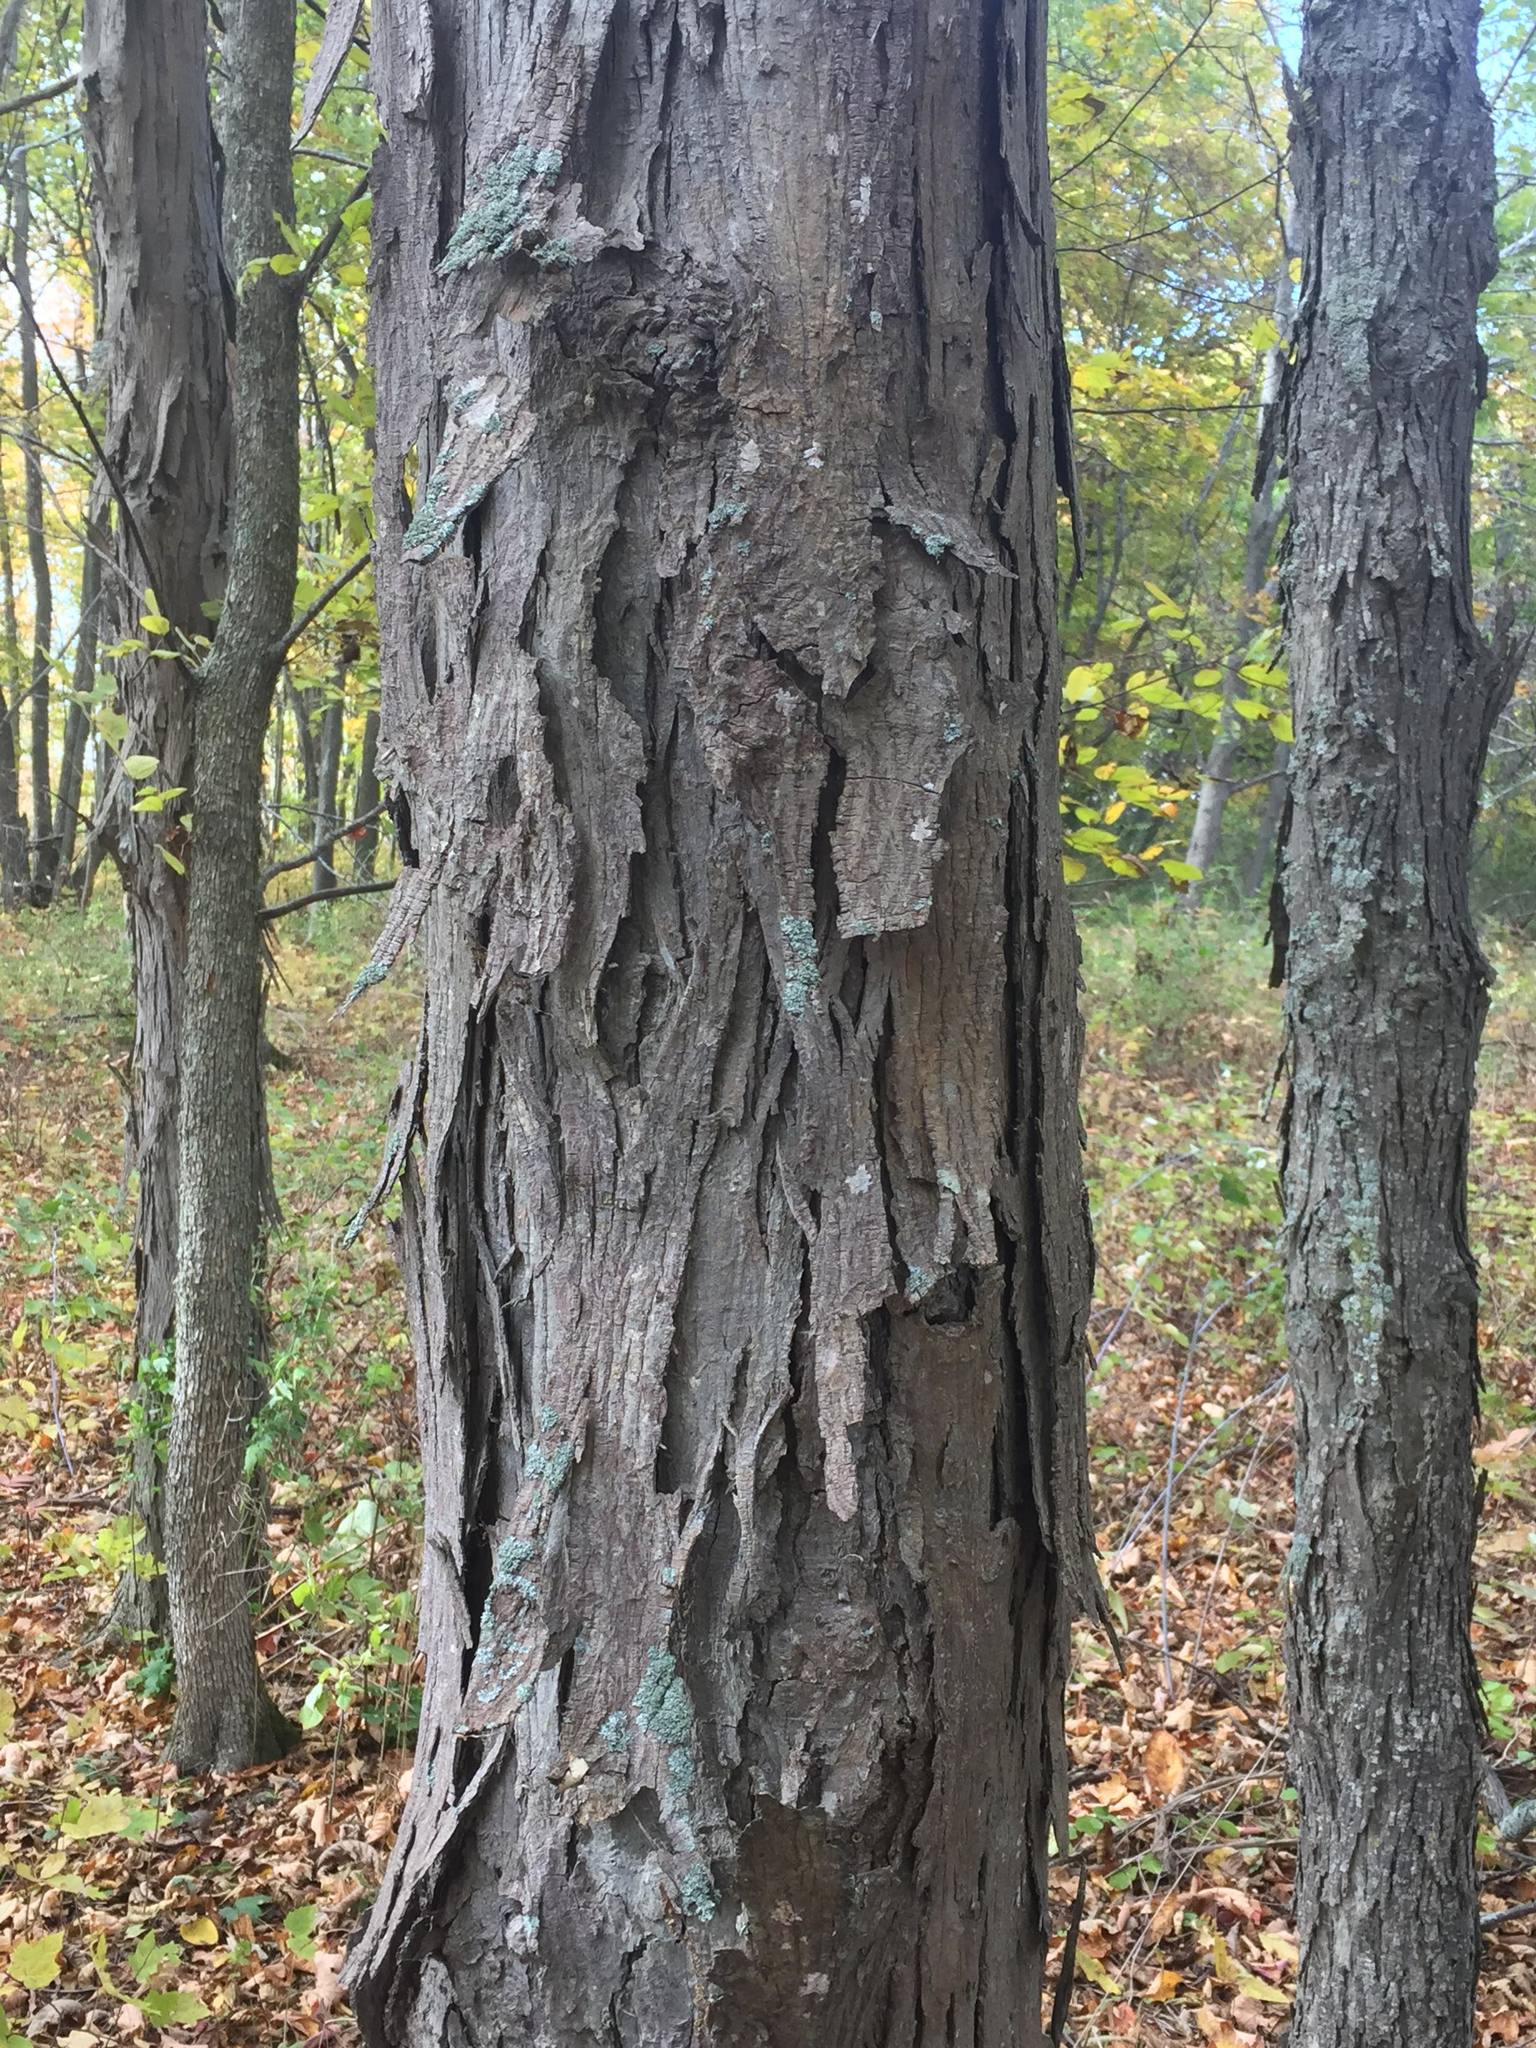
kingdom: Plantae
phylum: Tracheophyta
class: Magnoliopsida
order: Fagales
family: Juglandaceae
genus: Carya
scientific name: Carya ovata
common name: Shagbark hickory
